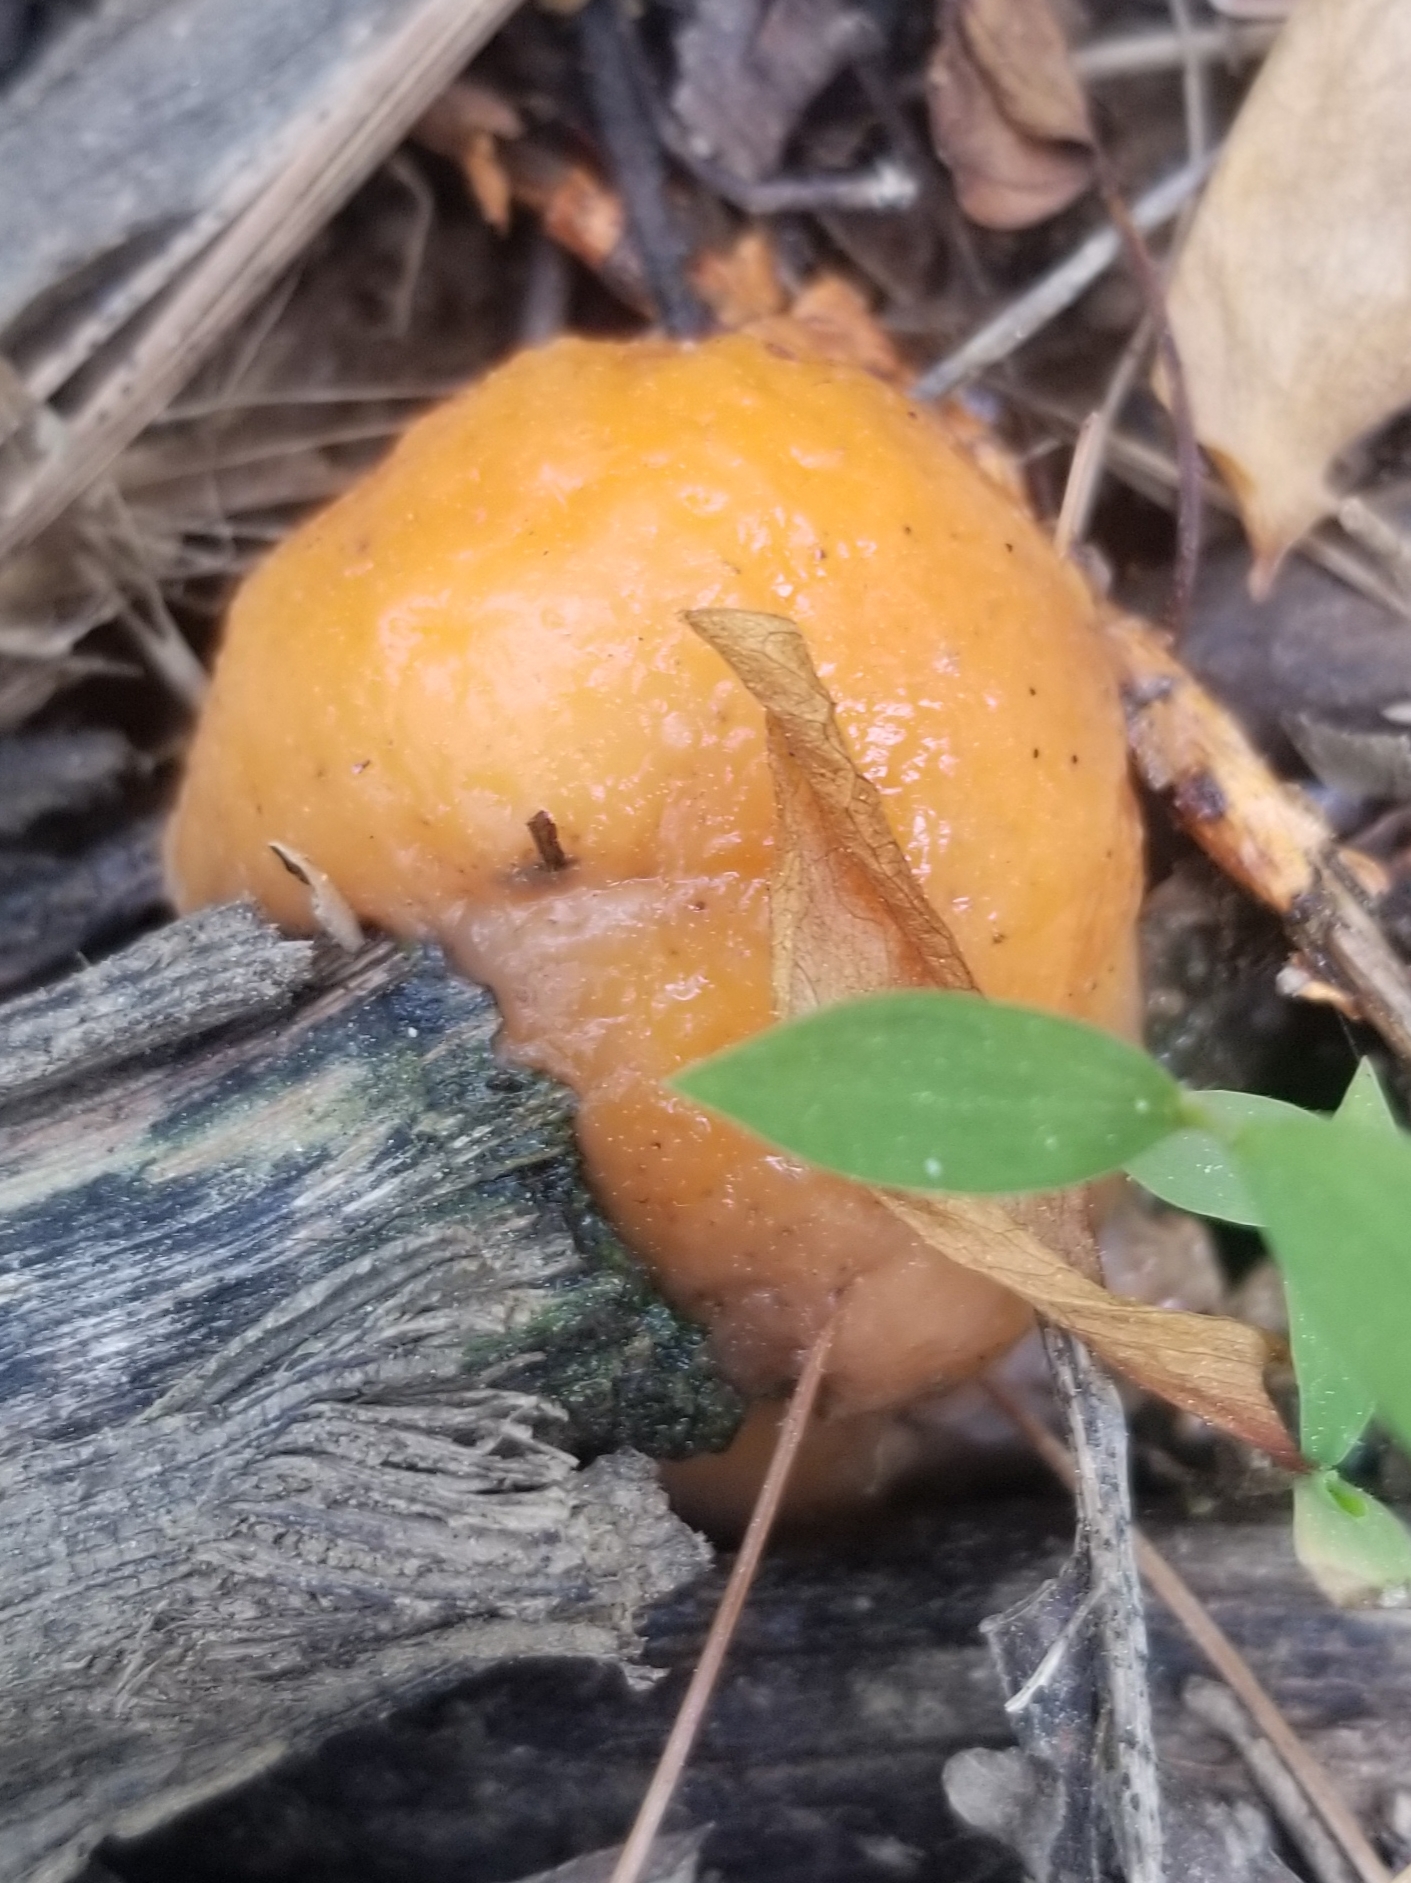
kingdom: Fungi
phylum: Ascomycota
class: Sordariomycetes
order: Hypocreales
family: Nectriaceae
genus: Fusicolla
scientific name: Fusicolla merismoides
